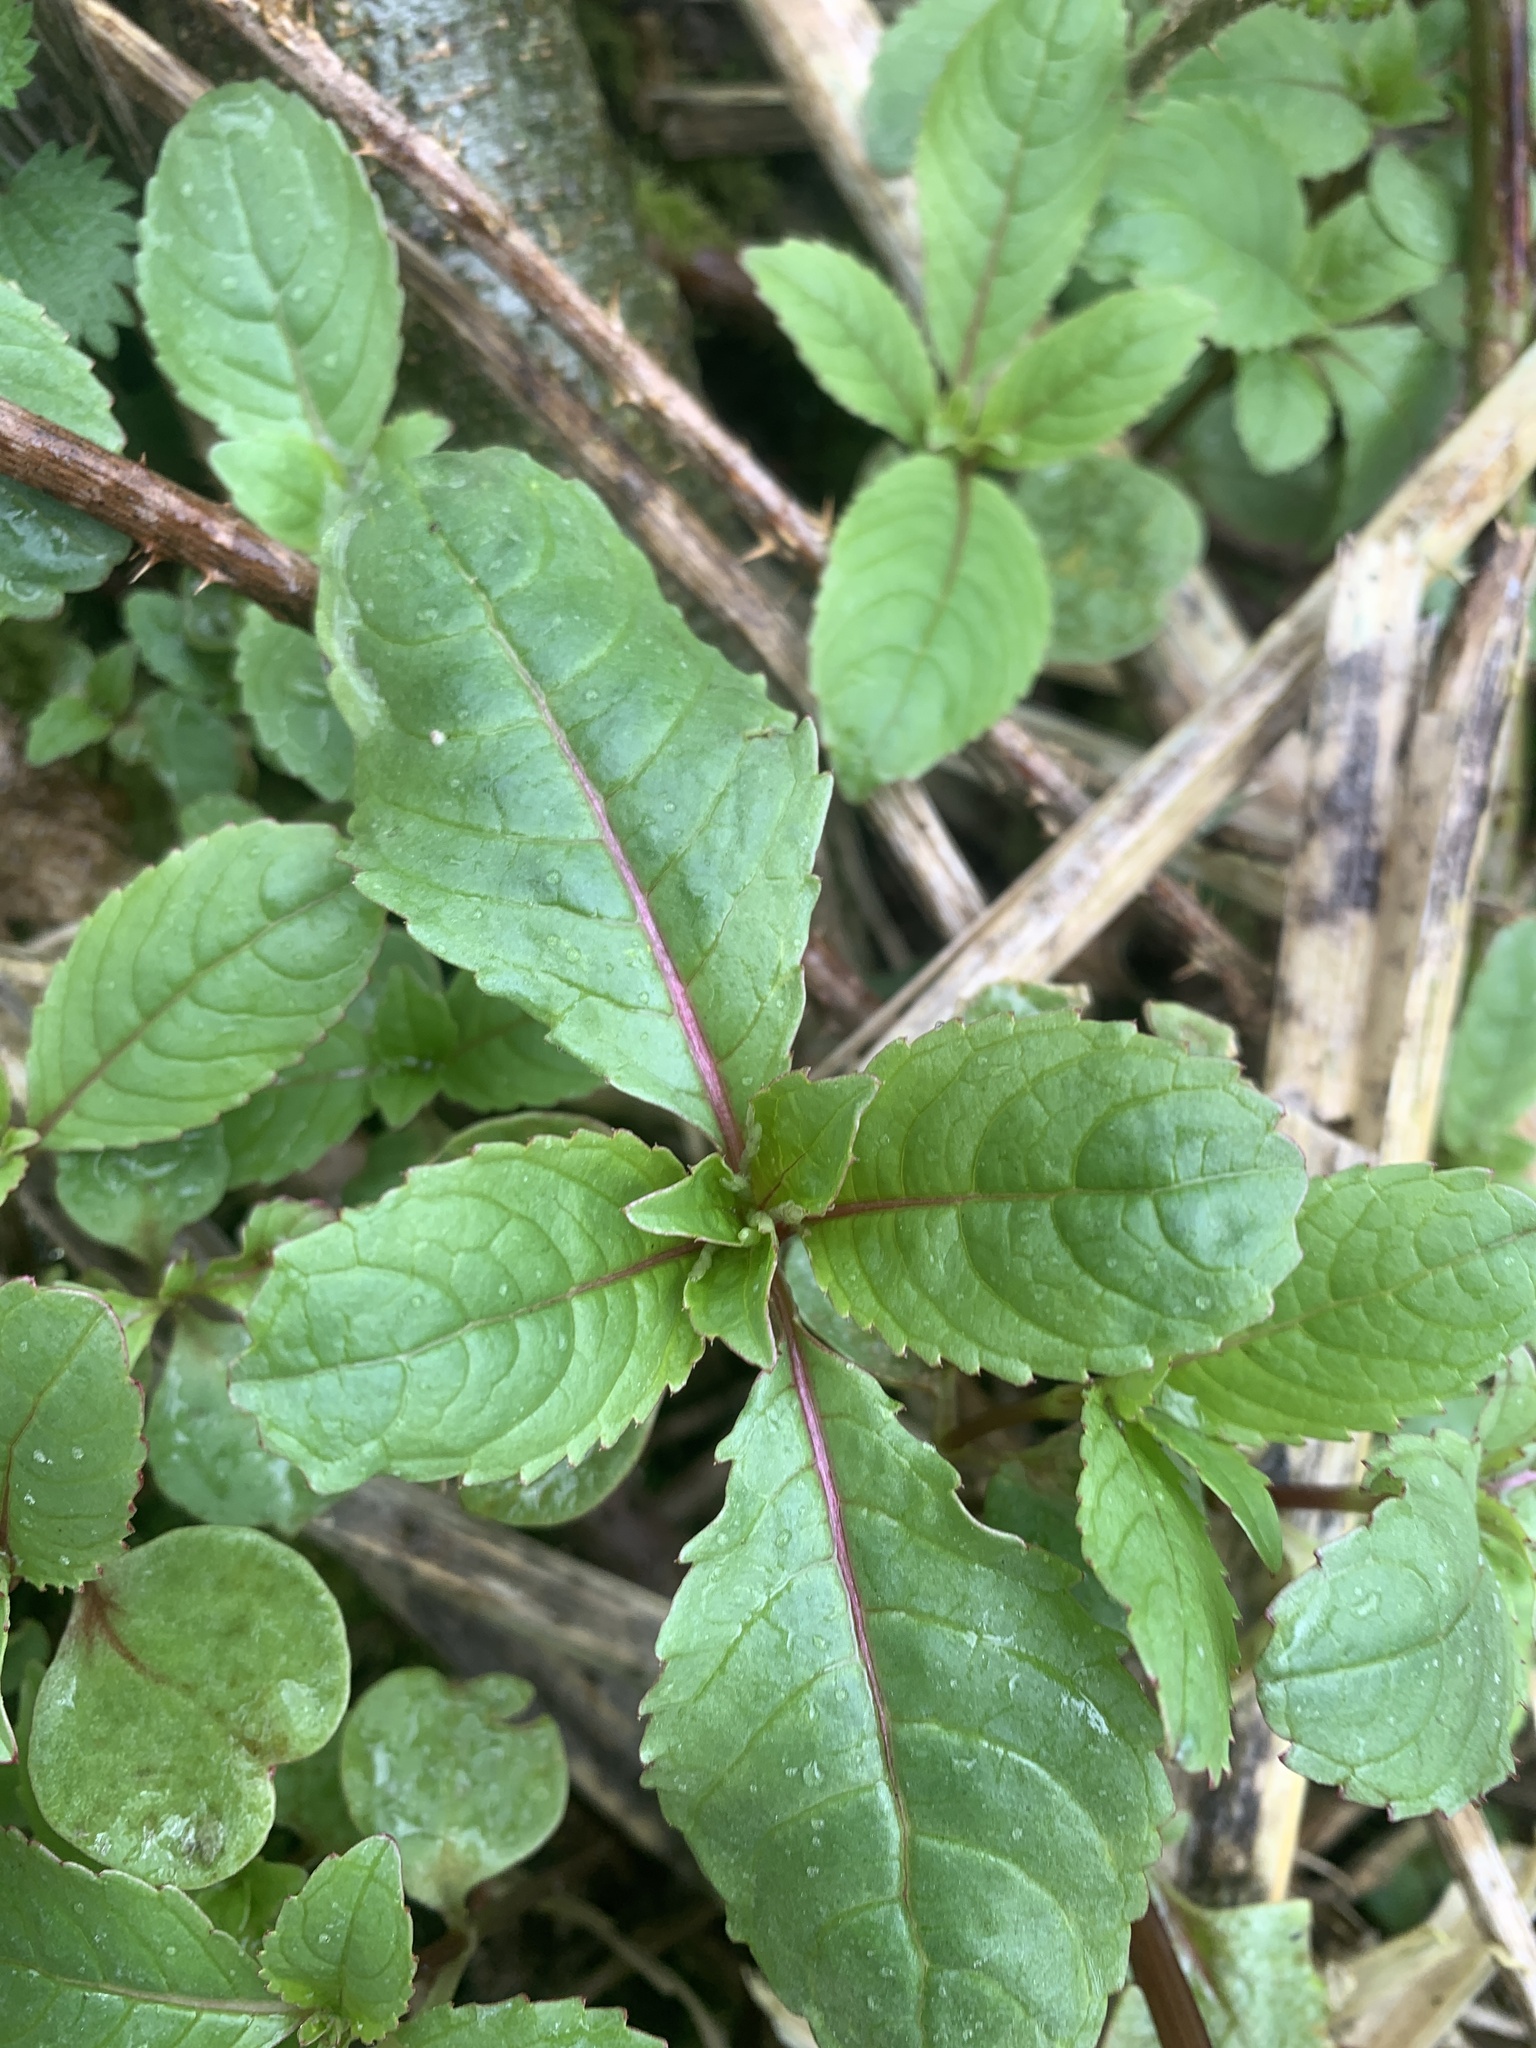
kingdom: Plantae
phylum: Tracheophyta
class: Magnoliopsida
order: Ericales
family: Balsaminaceae
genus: Impatiens
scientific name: Impatiens glandulifera
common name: Himalayan balsam
